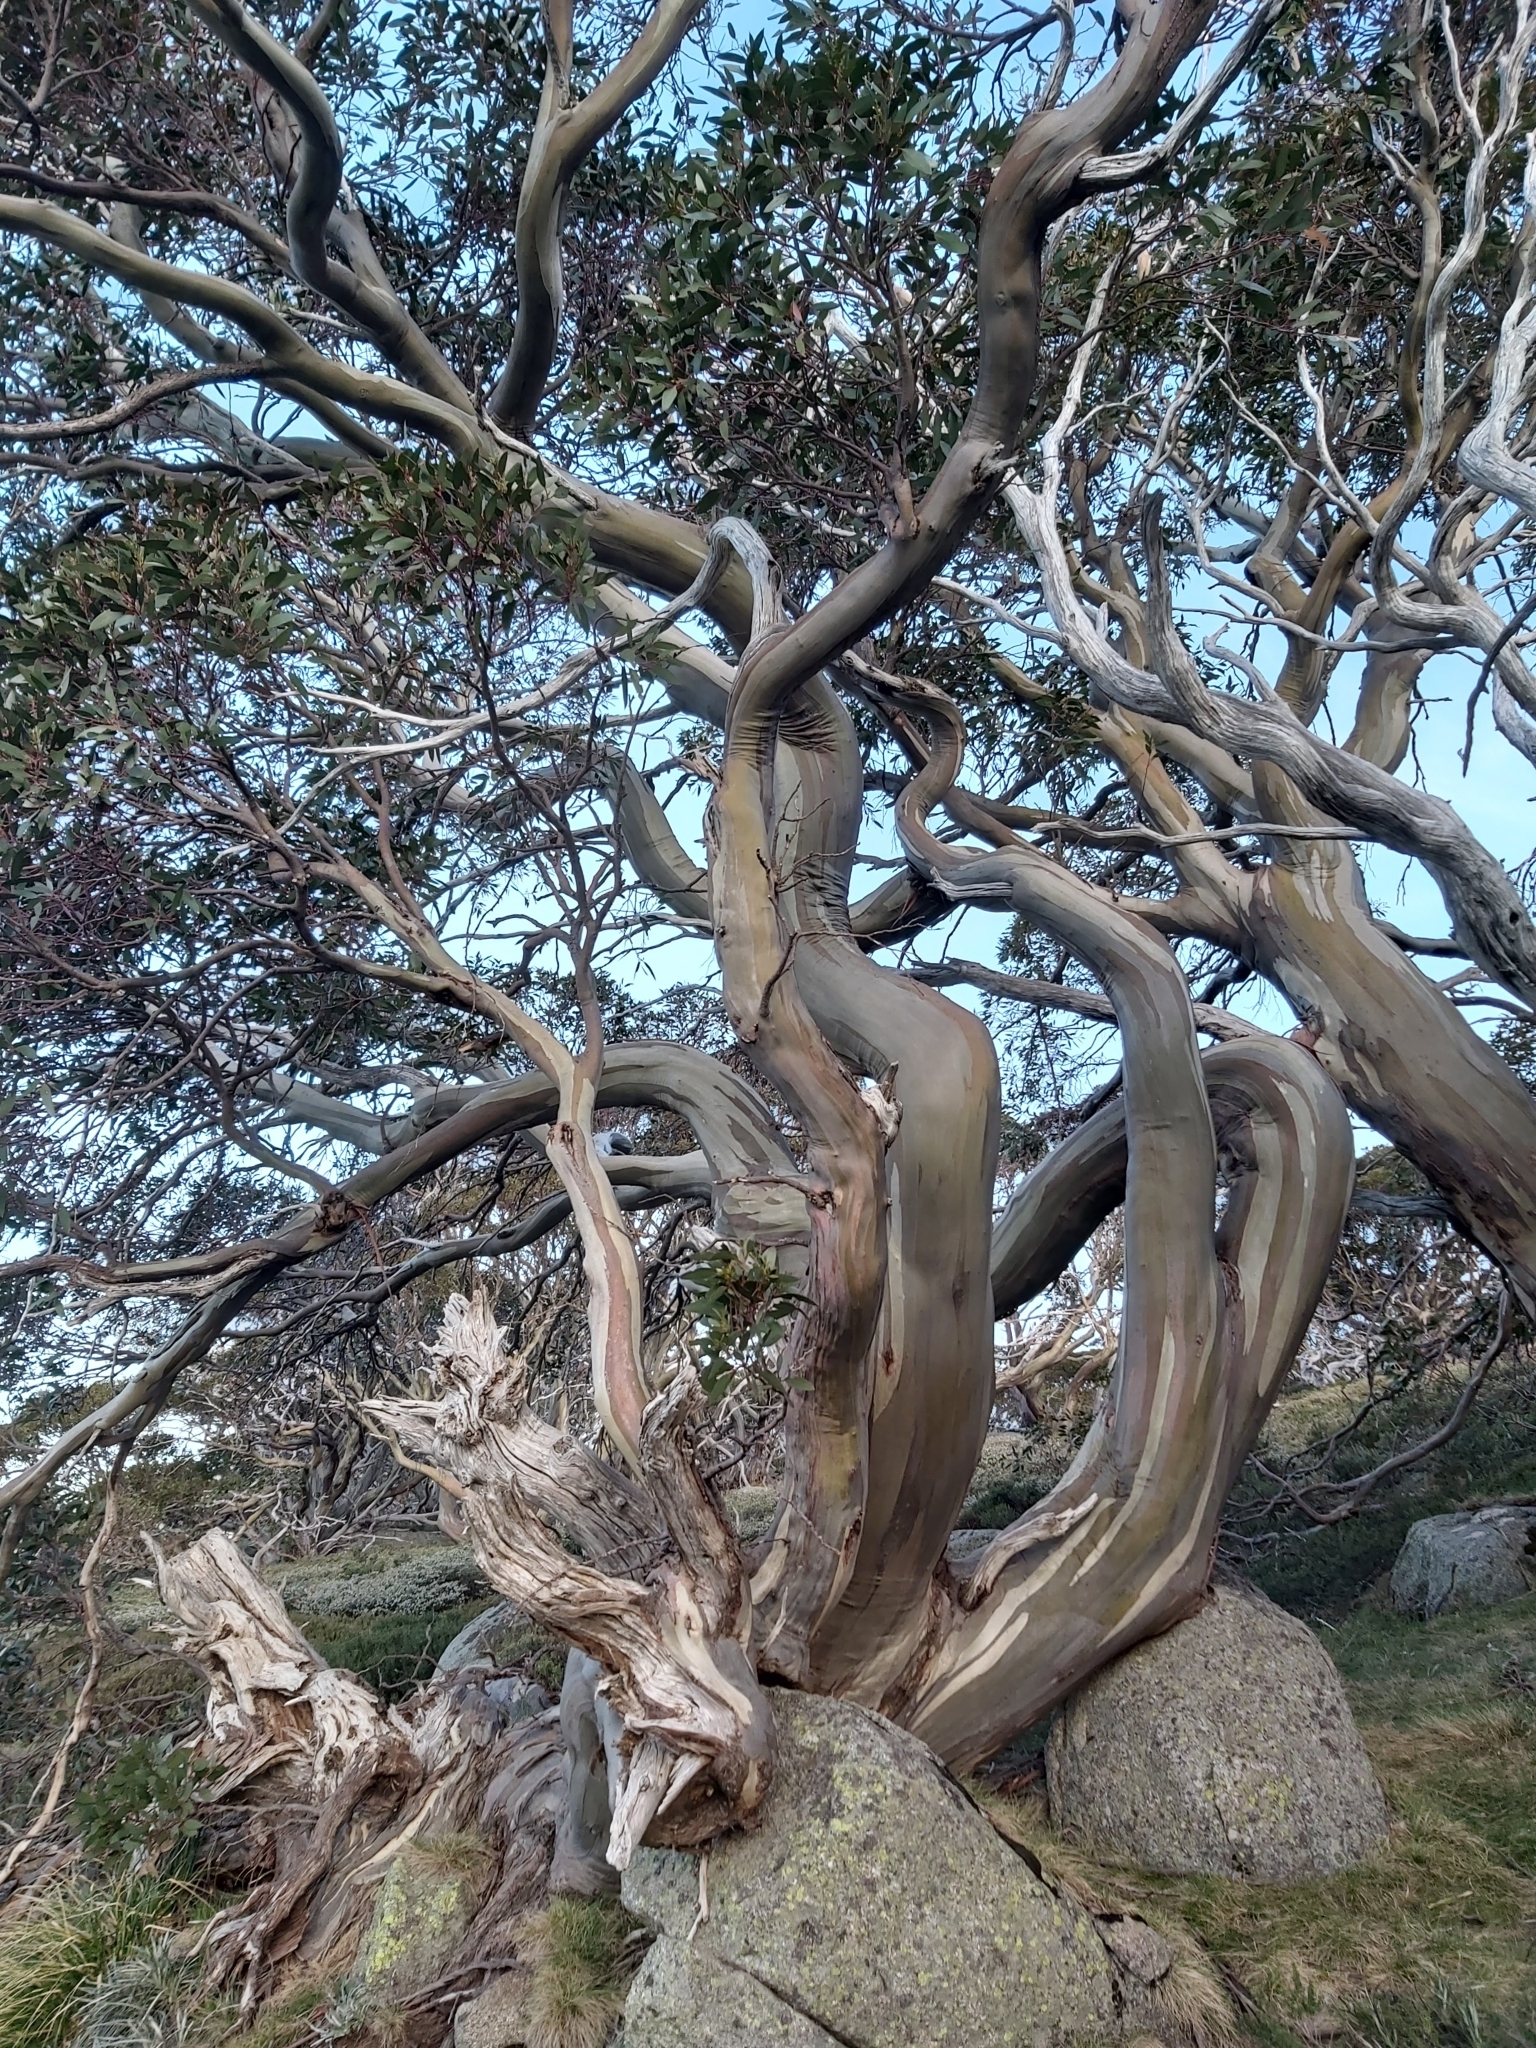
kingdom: Plantae
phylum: Tracheophyta
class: Magnoliopsida
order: Myrtales
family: Myrtaceae
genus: Eucalyptus
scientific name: Eucalyptus pauciflora
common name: Snow gum
